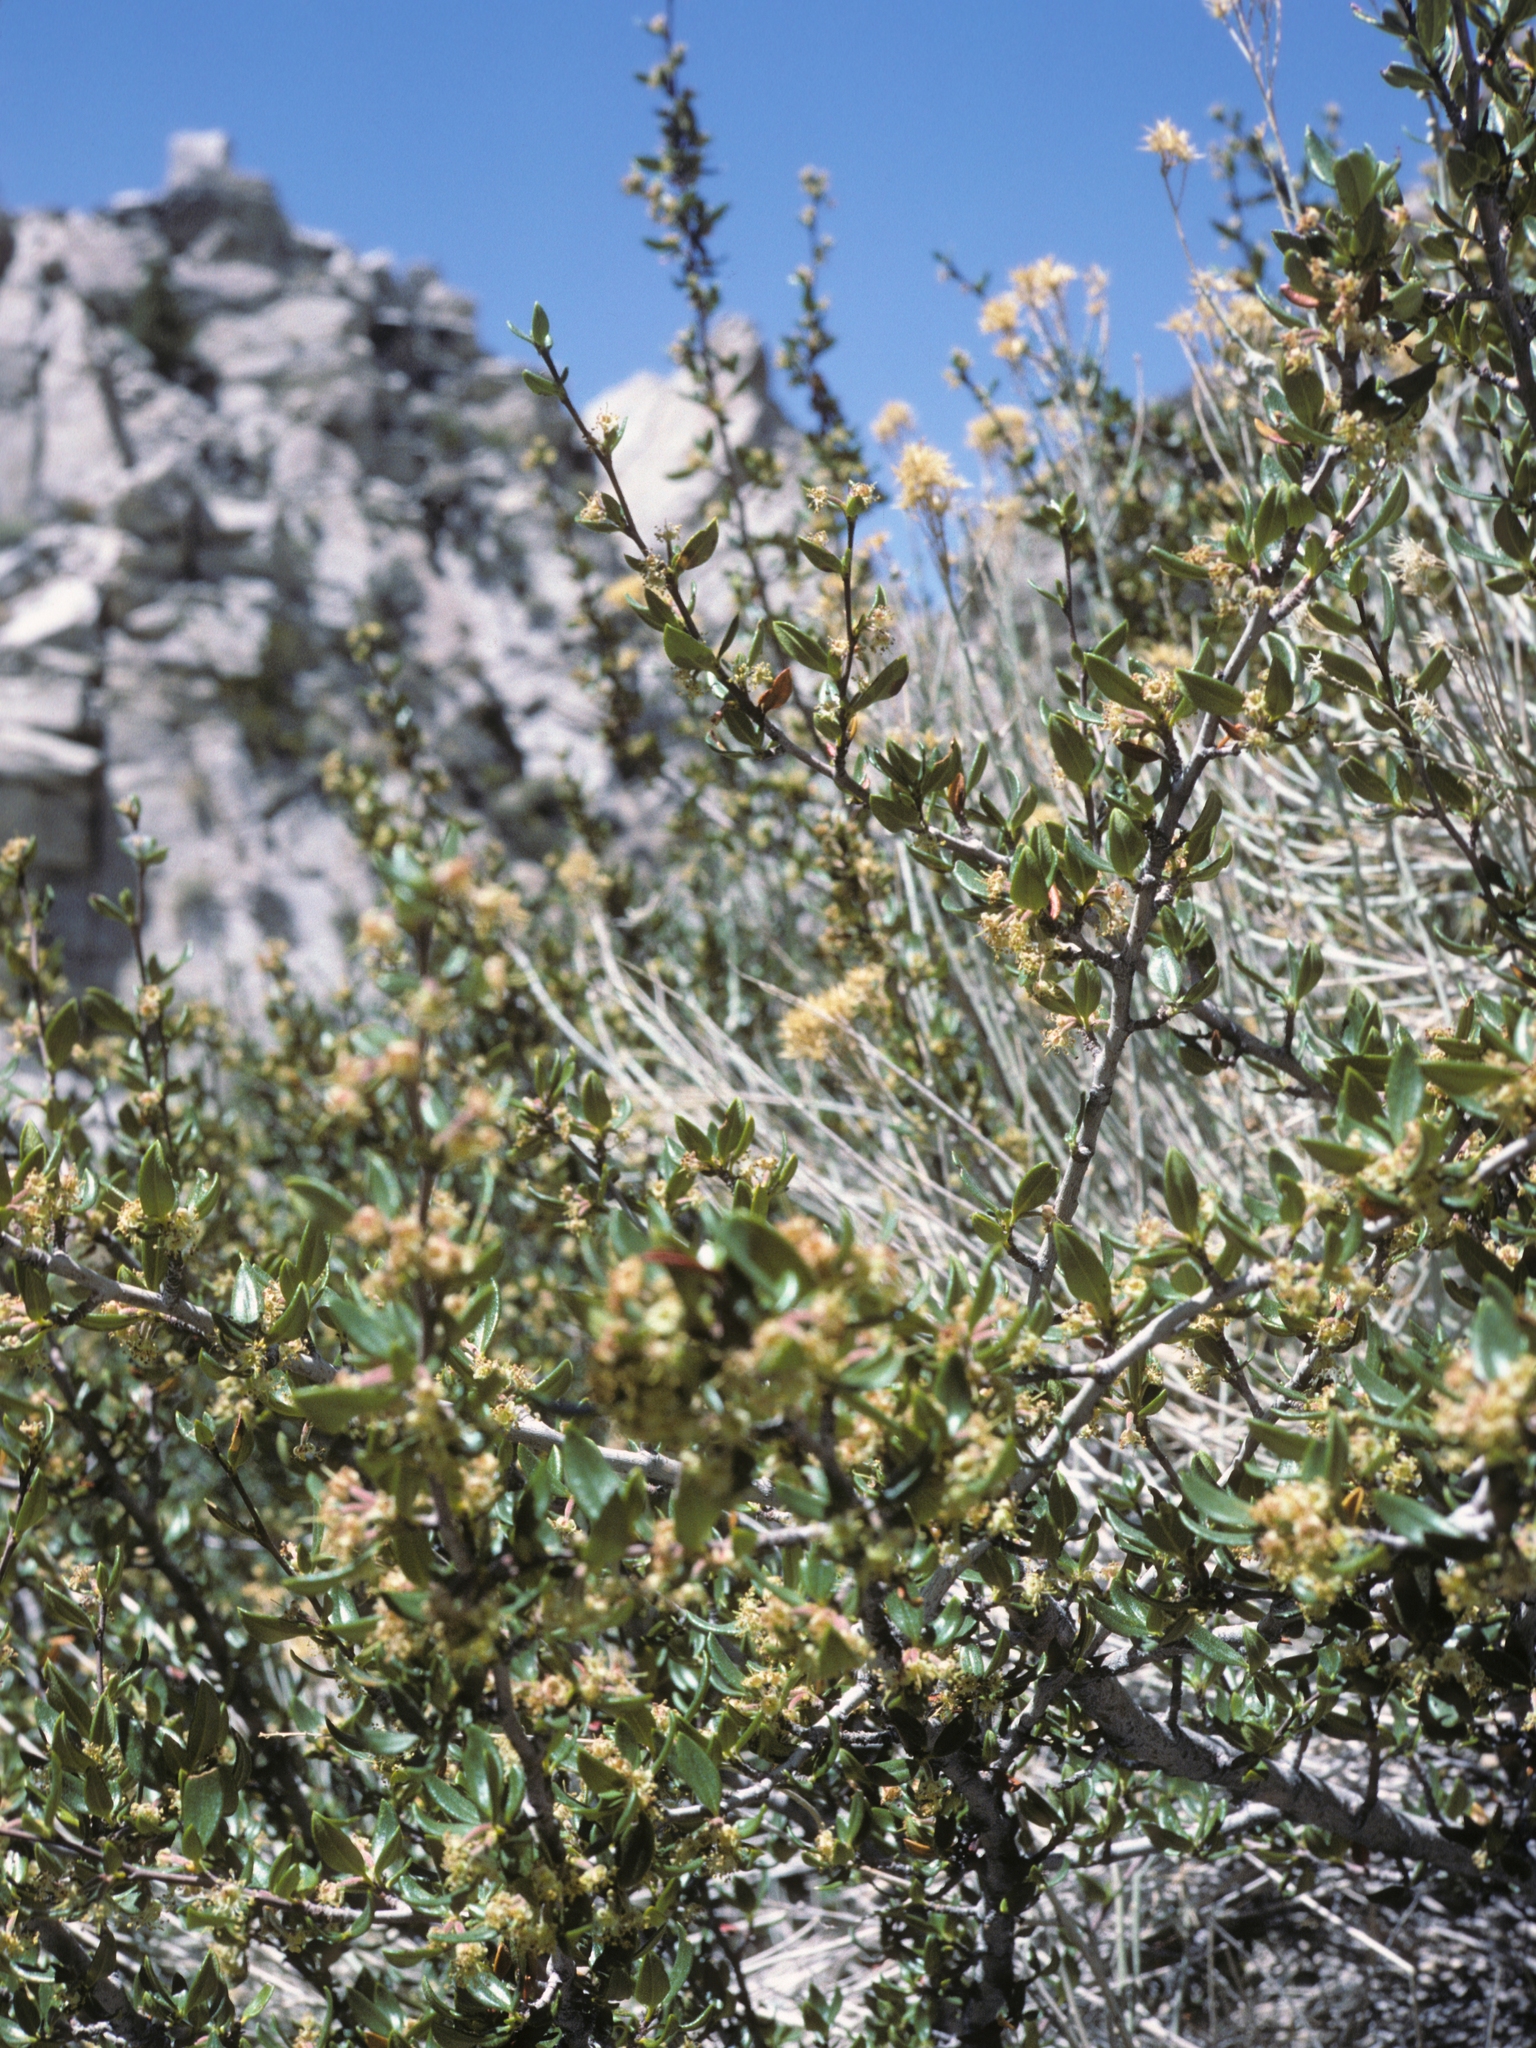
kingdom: Plantae
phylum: Tracheophyta
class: Magnoliopsida
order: Rosales
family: Rosaceae
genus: Cercocarpus
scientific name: Cercocarpus ledifolius
